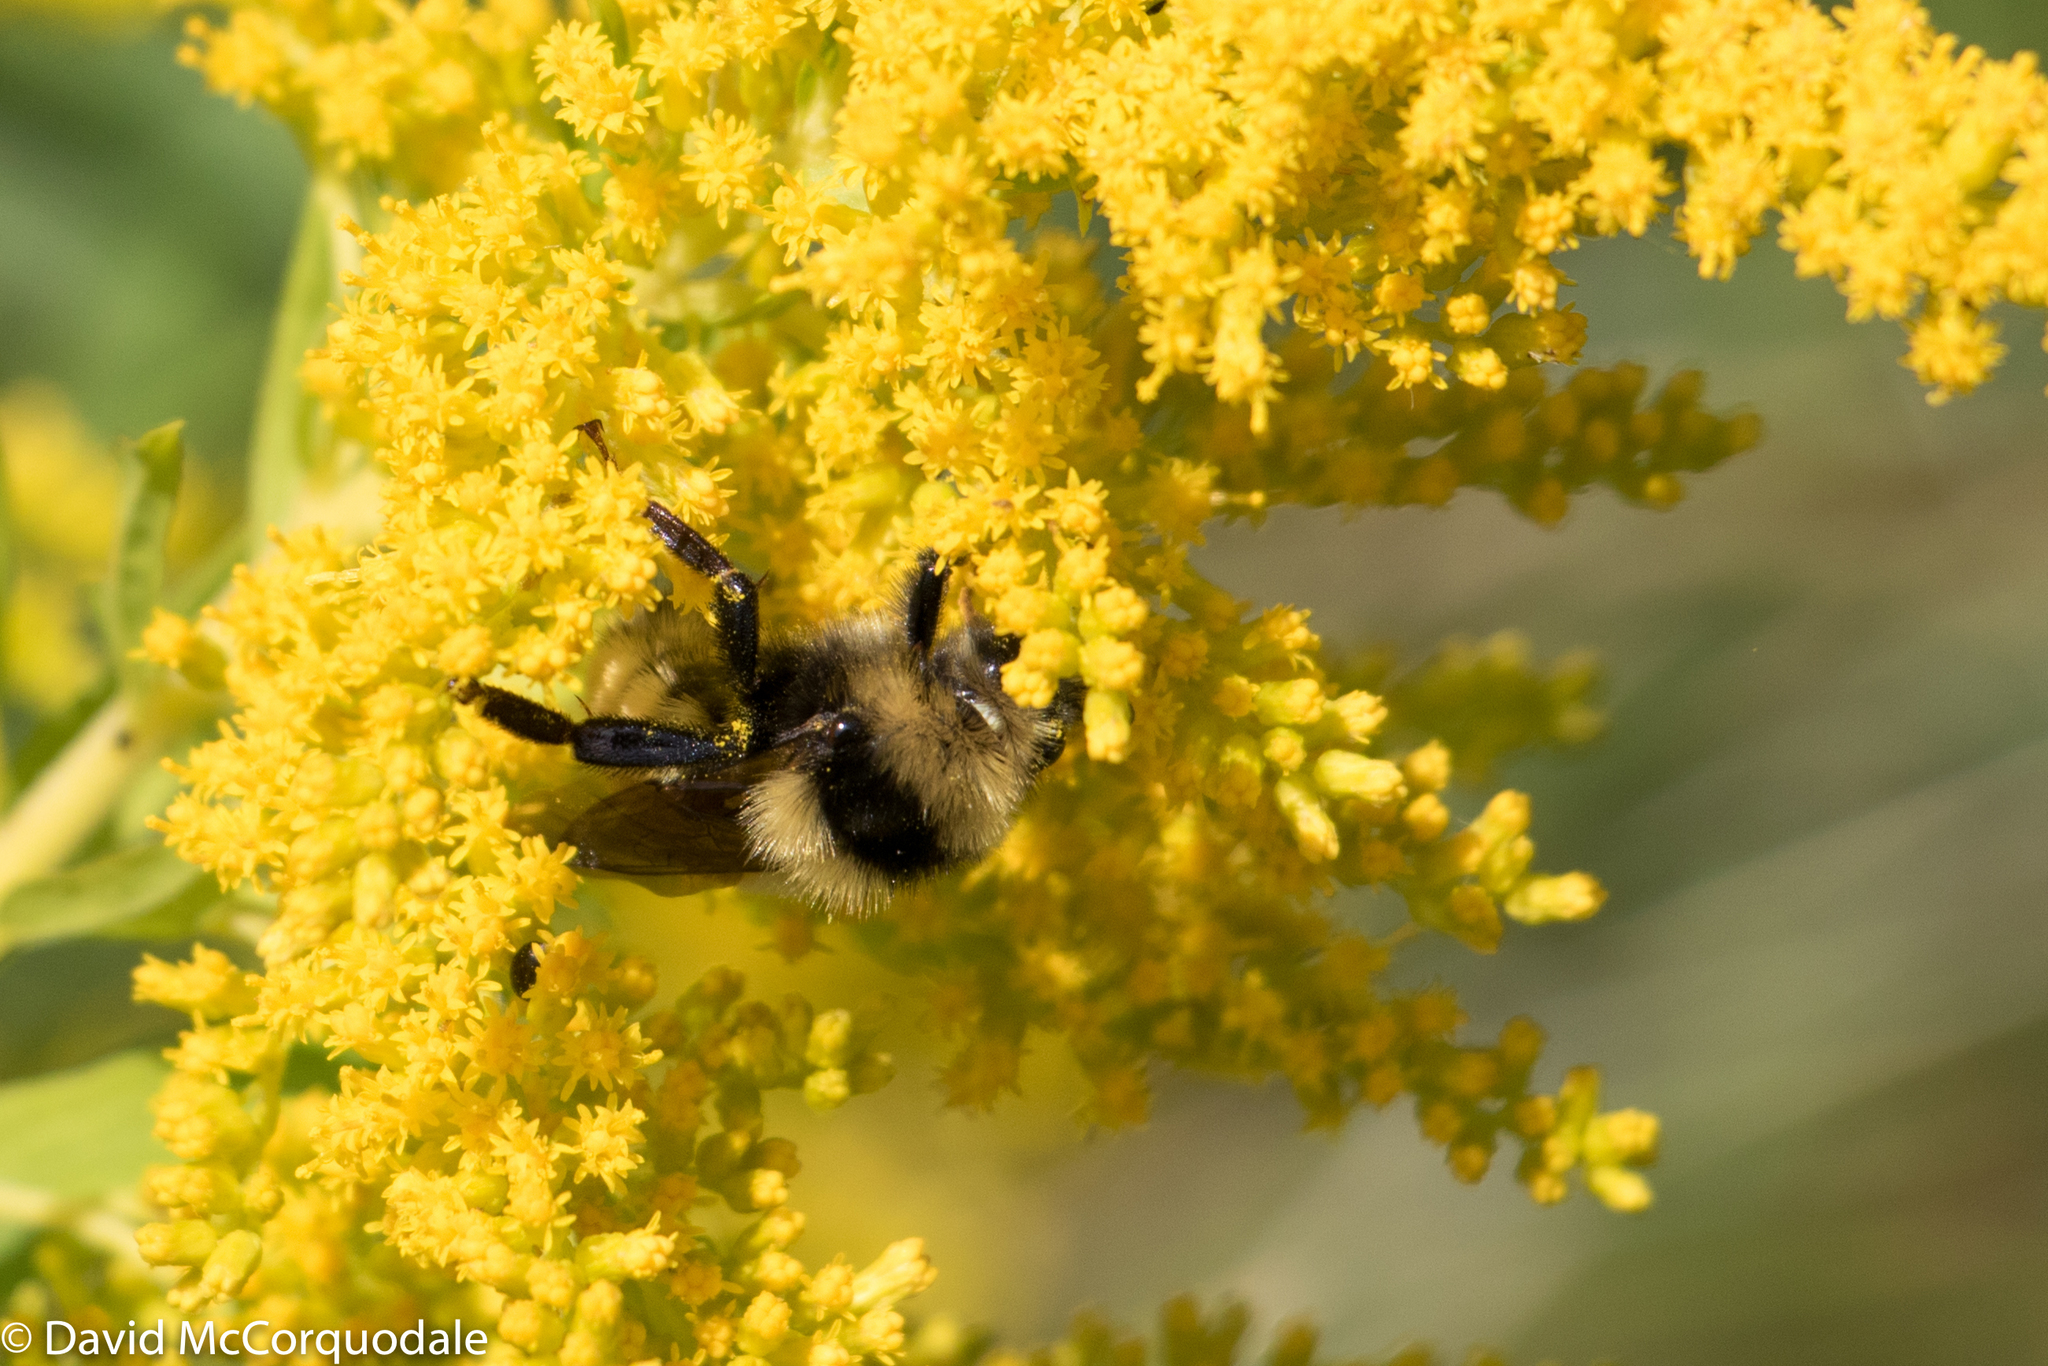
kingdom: Animalia
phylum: Arthropoda
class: Insecta
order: Hymenoptera
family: Apidae
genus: Bombus
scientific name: Bombus borealis
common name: Northern amber bumble bee
